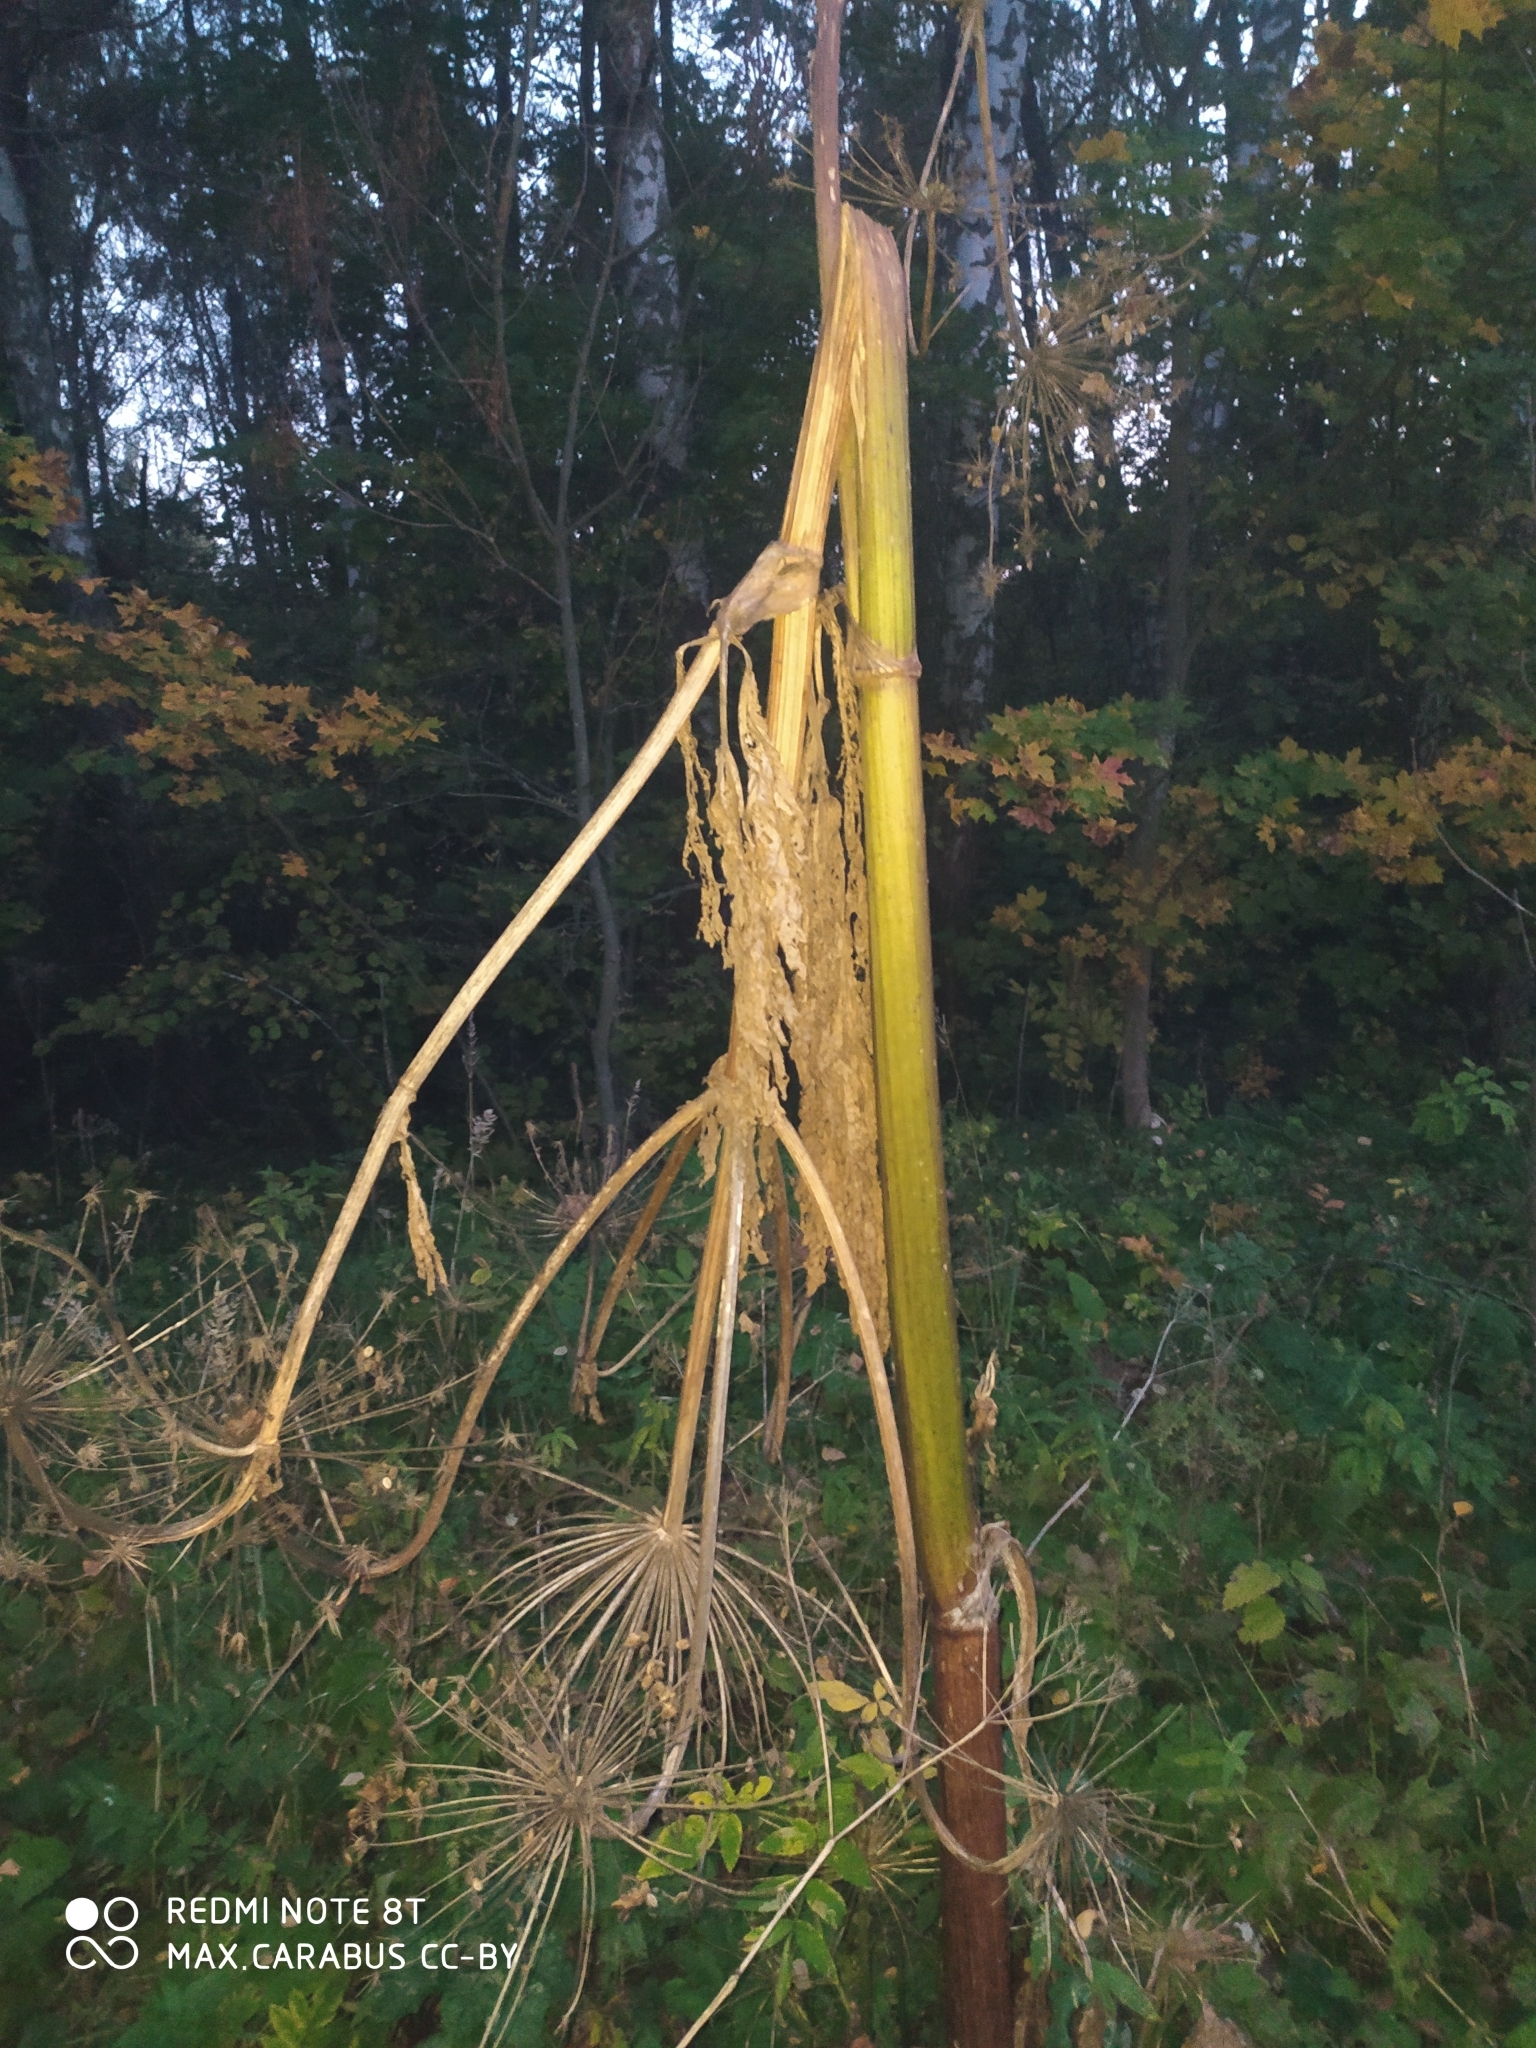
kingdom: Plantae
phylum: Tracheophyta
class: Magnoliopsida
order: Apiales
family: Apiaceae
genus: Heracleum
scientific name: Heracleum sosnowskyi
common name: Sosnowsky's hogweed
